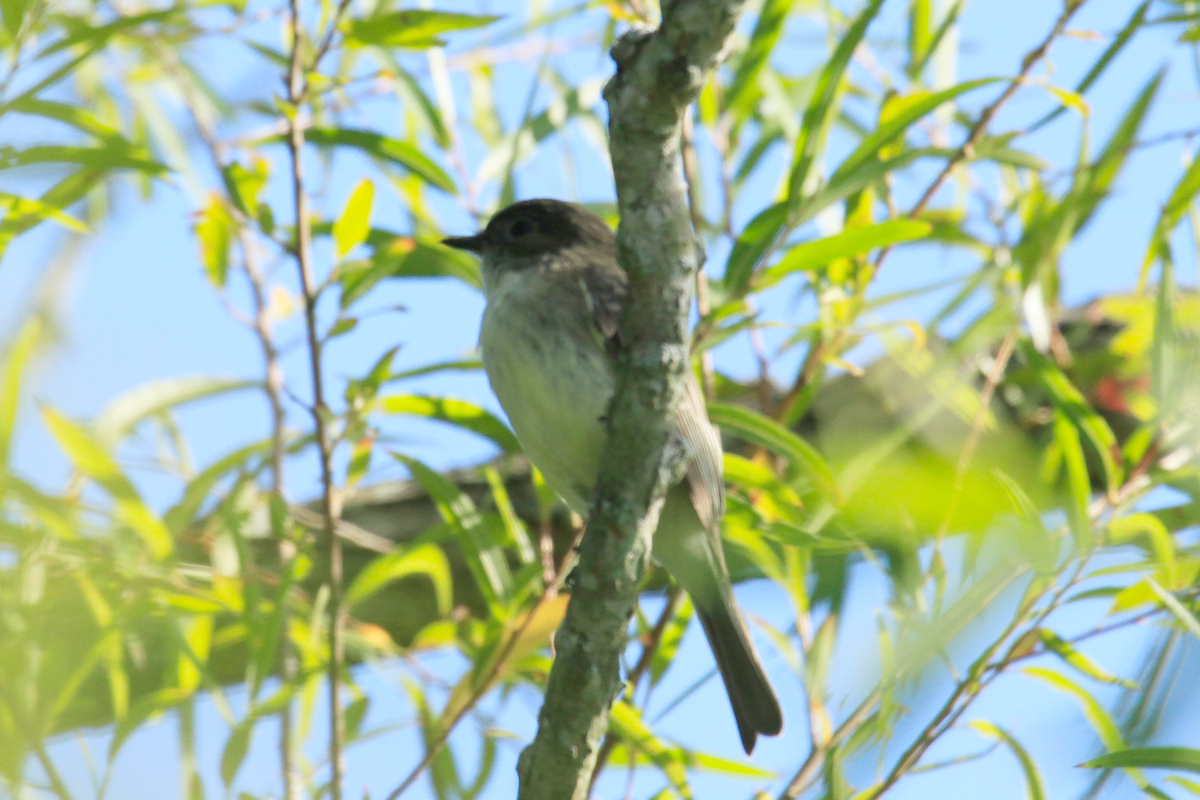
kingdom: Animalia
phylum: Chordata
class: Aves
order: Passeriformes
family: Tyrannidae
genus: Sayornis
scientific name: Sayornis phoebe
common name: Eastern phoebe
